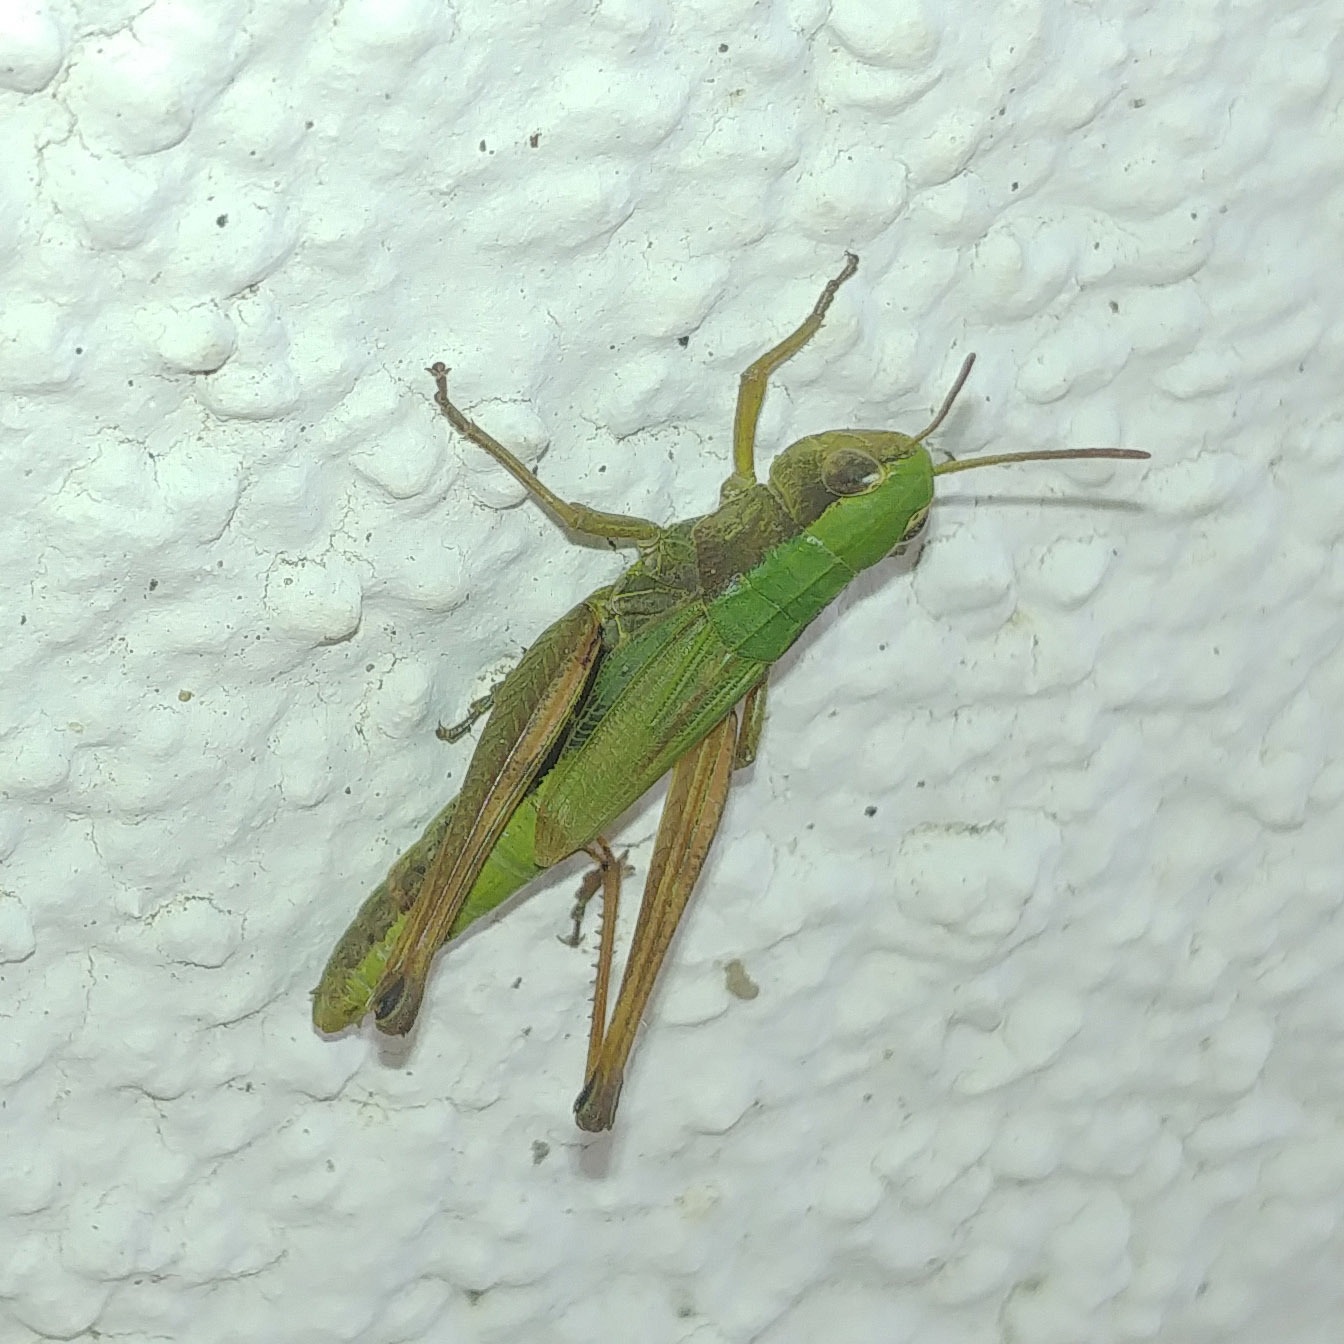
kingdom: Animalia
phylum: Arthropoda
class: Insecta
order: Orthoptera
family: Acrididae
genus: Pseudochorthippus
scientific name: Pseudochorthippus parallelus
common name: Meadow grasshopper
